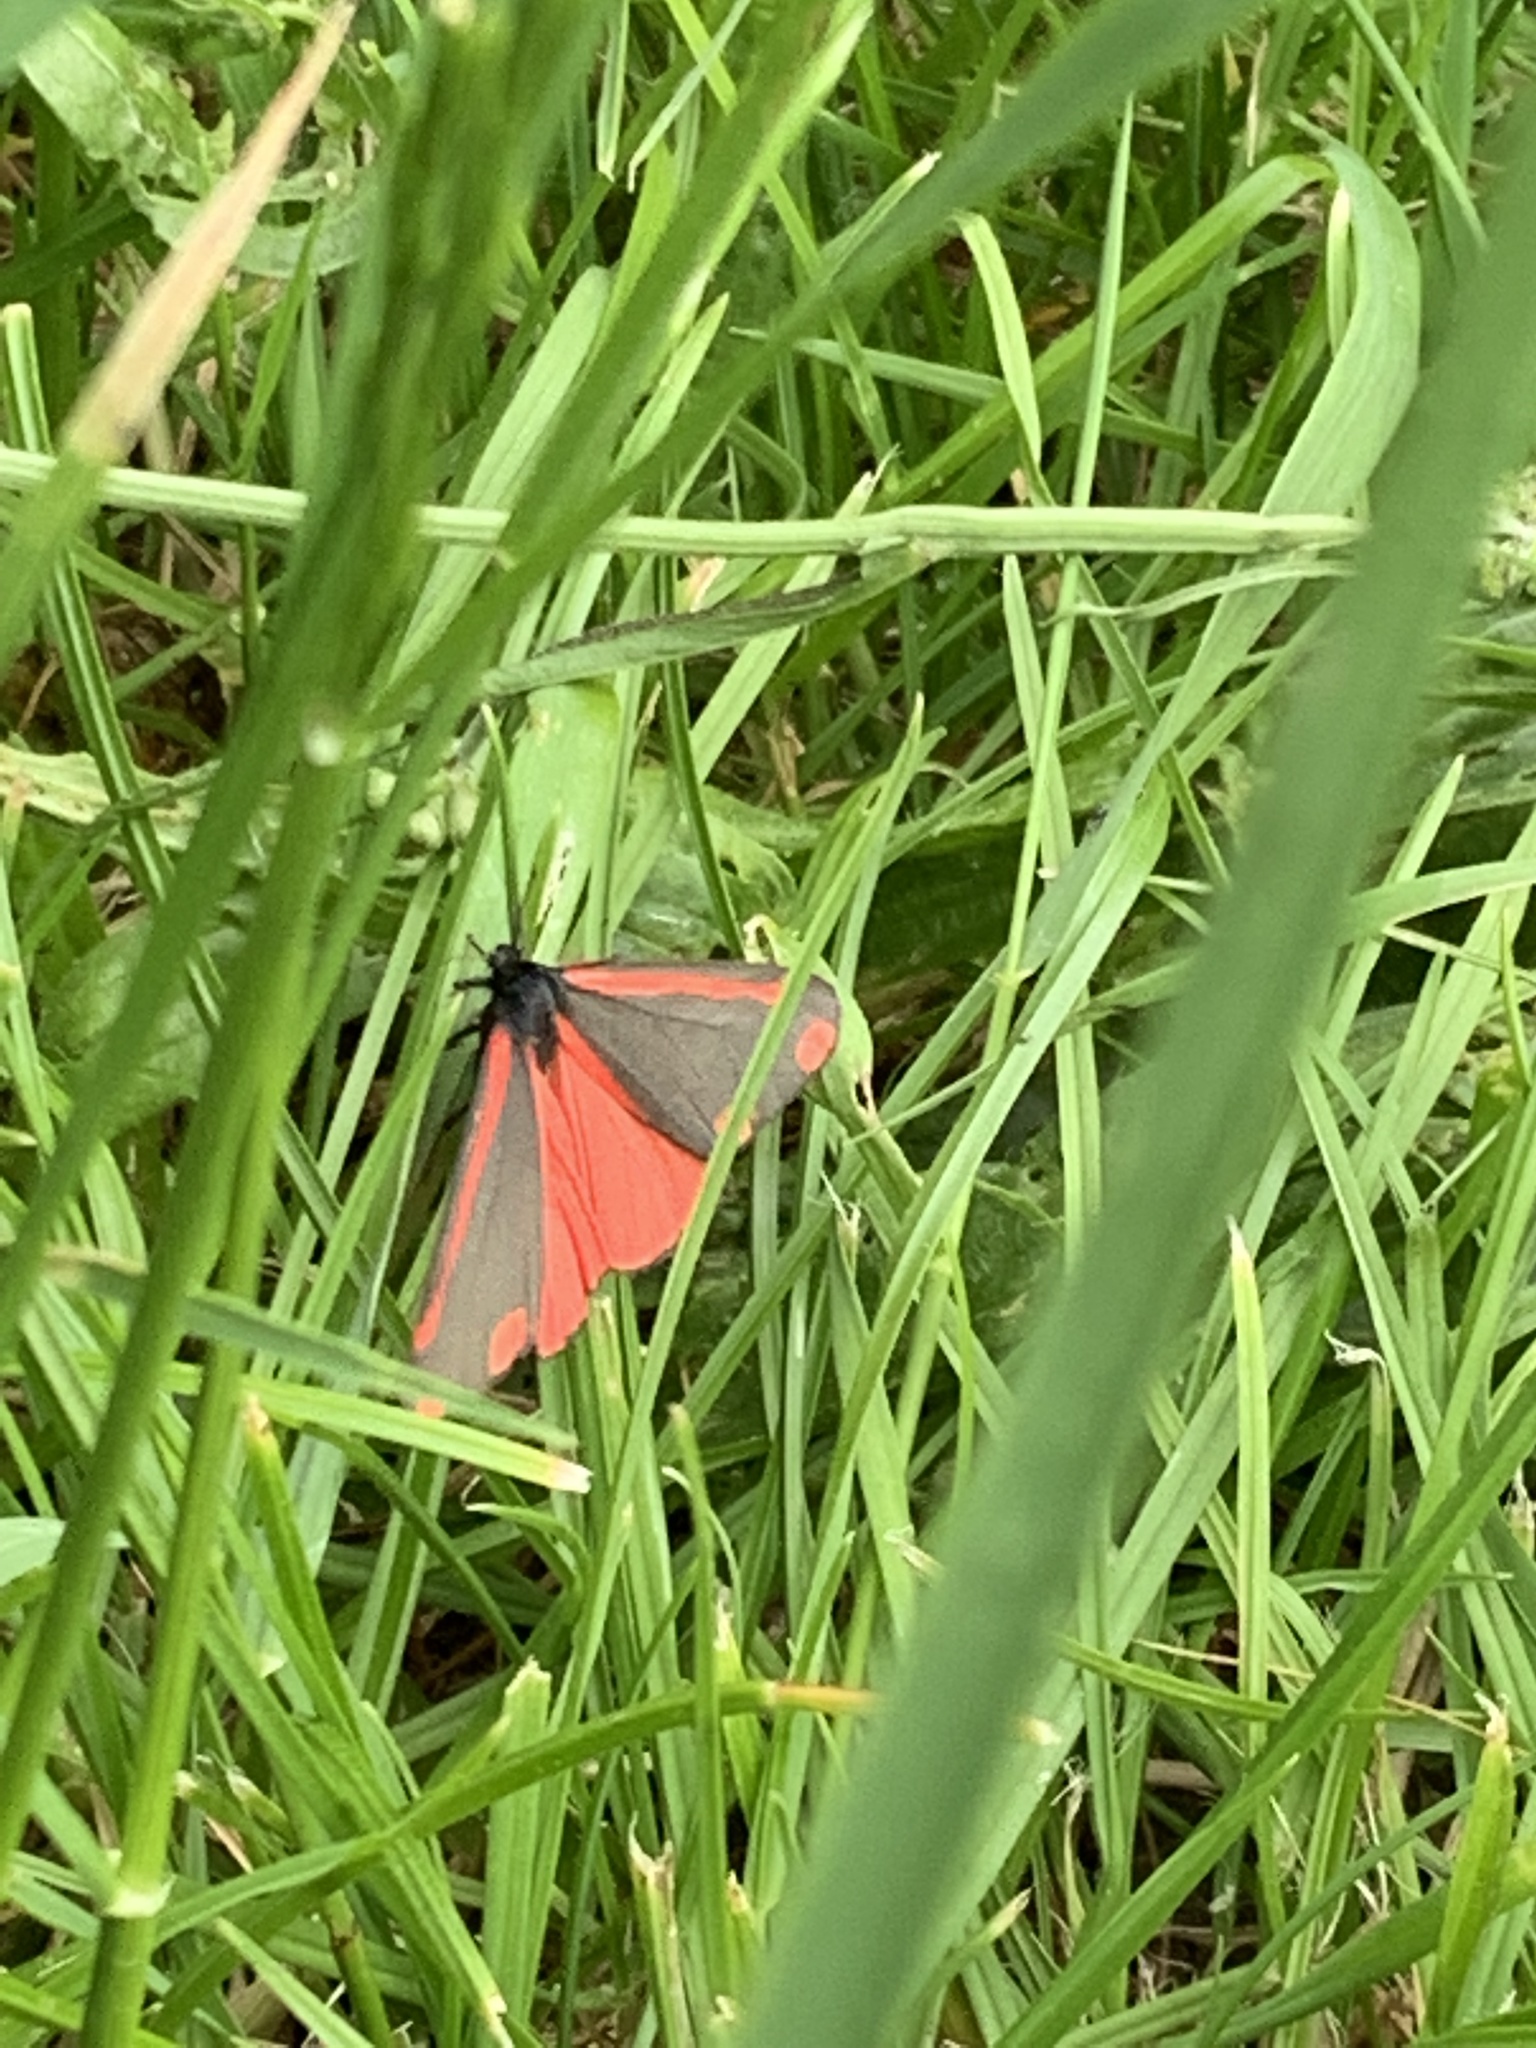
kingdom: Animalia
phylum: Arthropoda
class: Insecta
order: Lepidoptera
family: Erebidae
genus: Tyria
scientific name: Tyria jacobaeae
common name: Cinnabar
